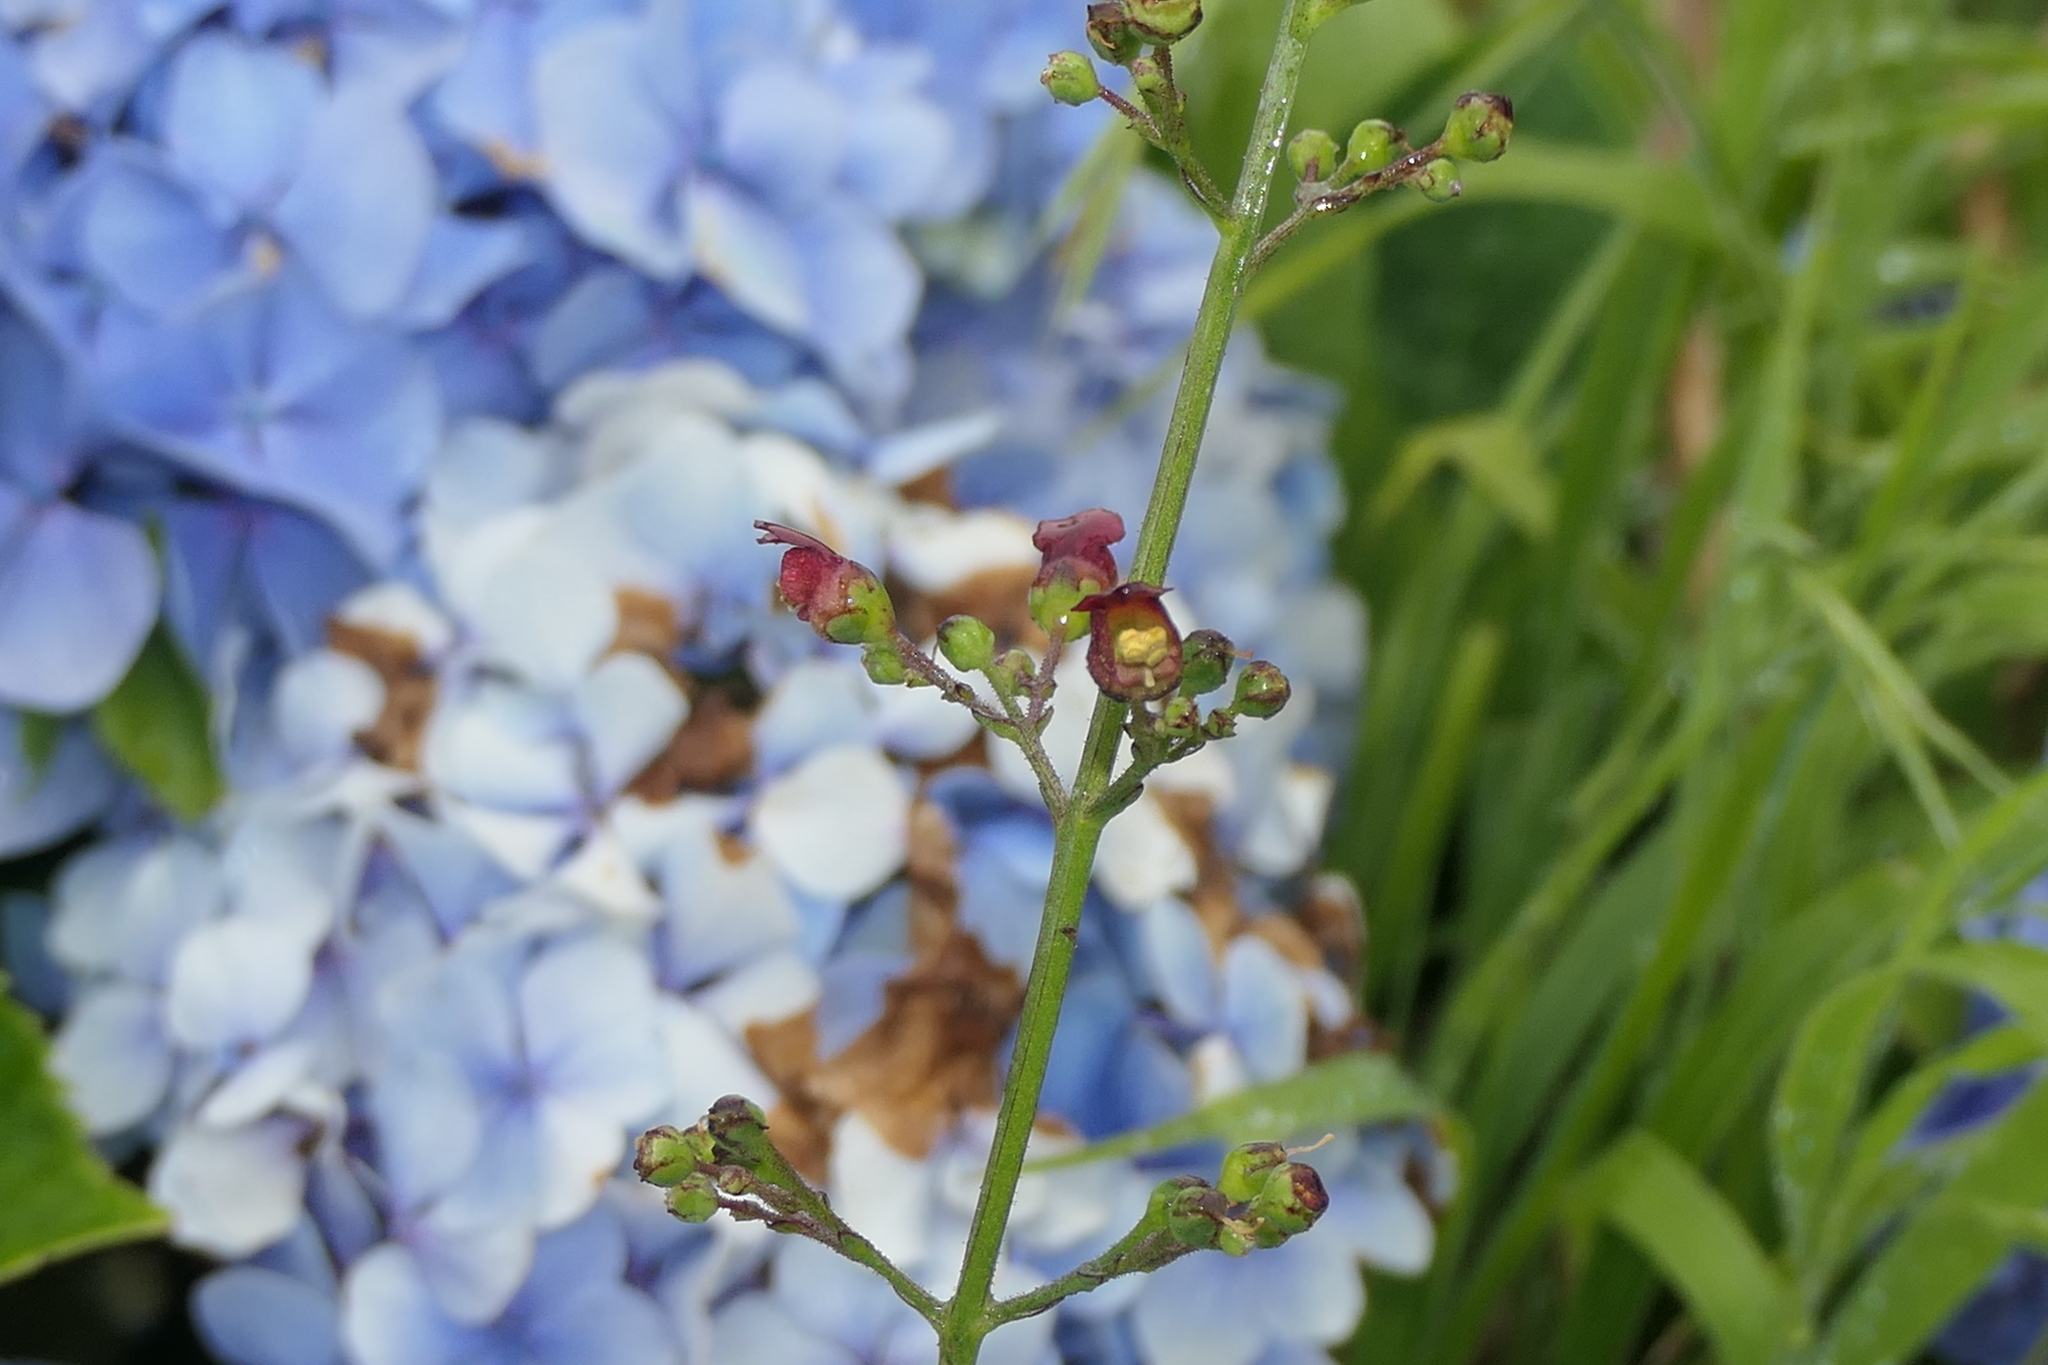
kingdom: Plantae
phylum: Tracheophyta
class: Magnoliopsida
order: Lamiales
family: Scrophulariaceae
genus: Scrophularia
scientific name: Scrophularia auriculata
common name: Water betony
